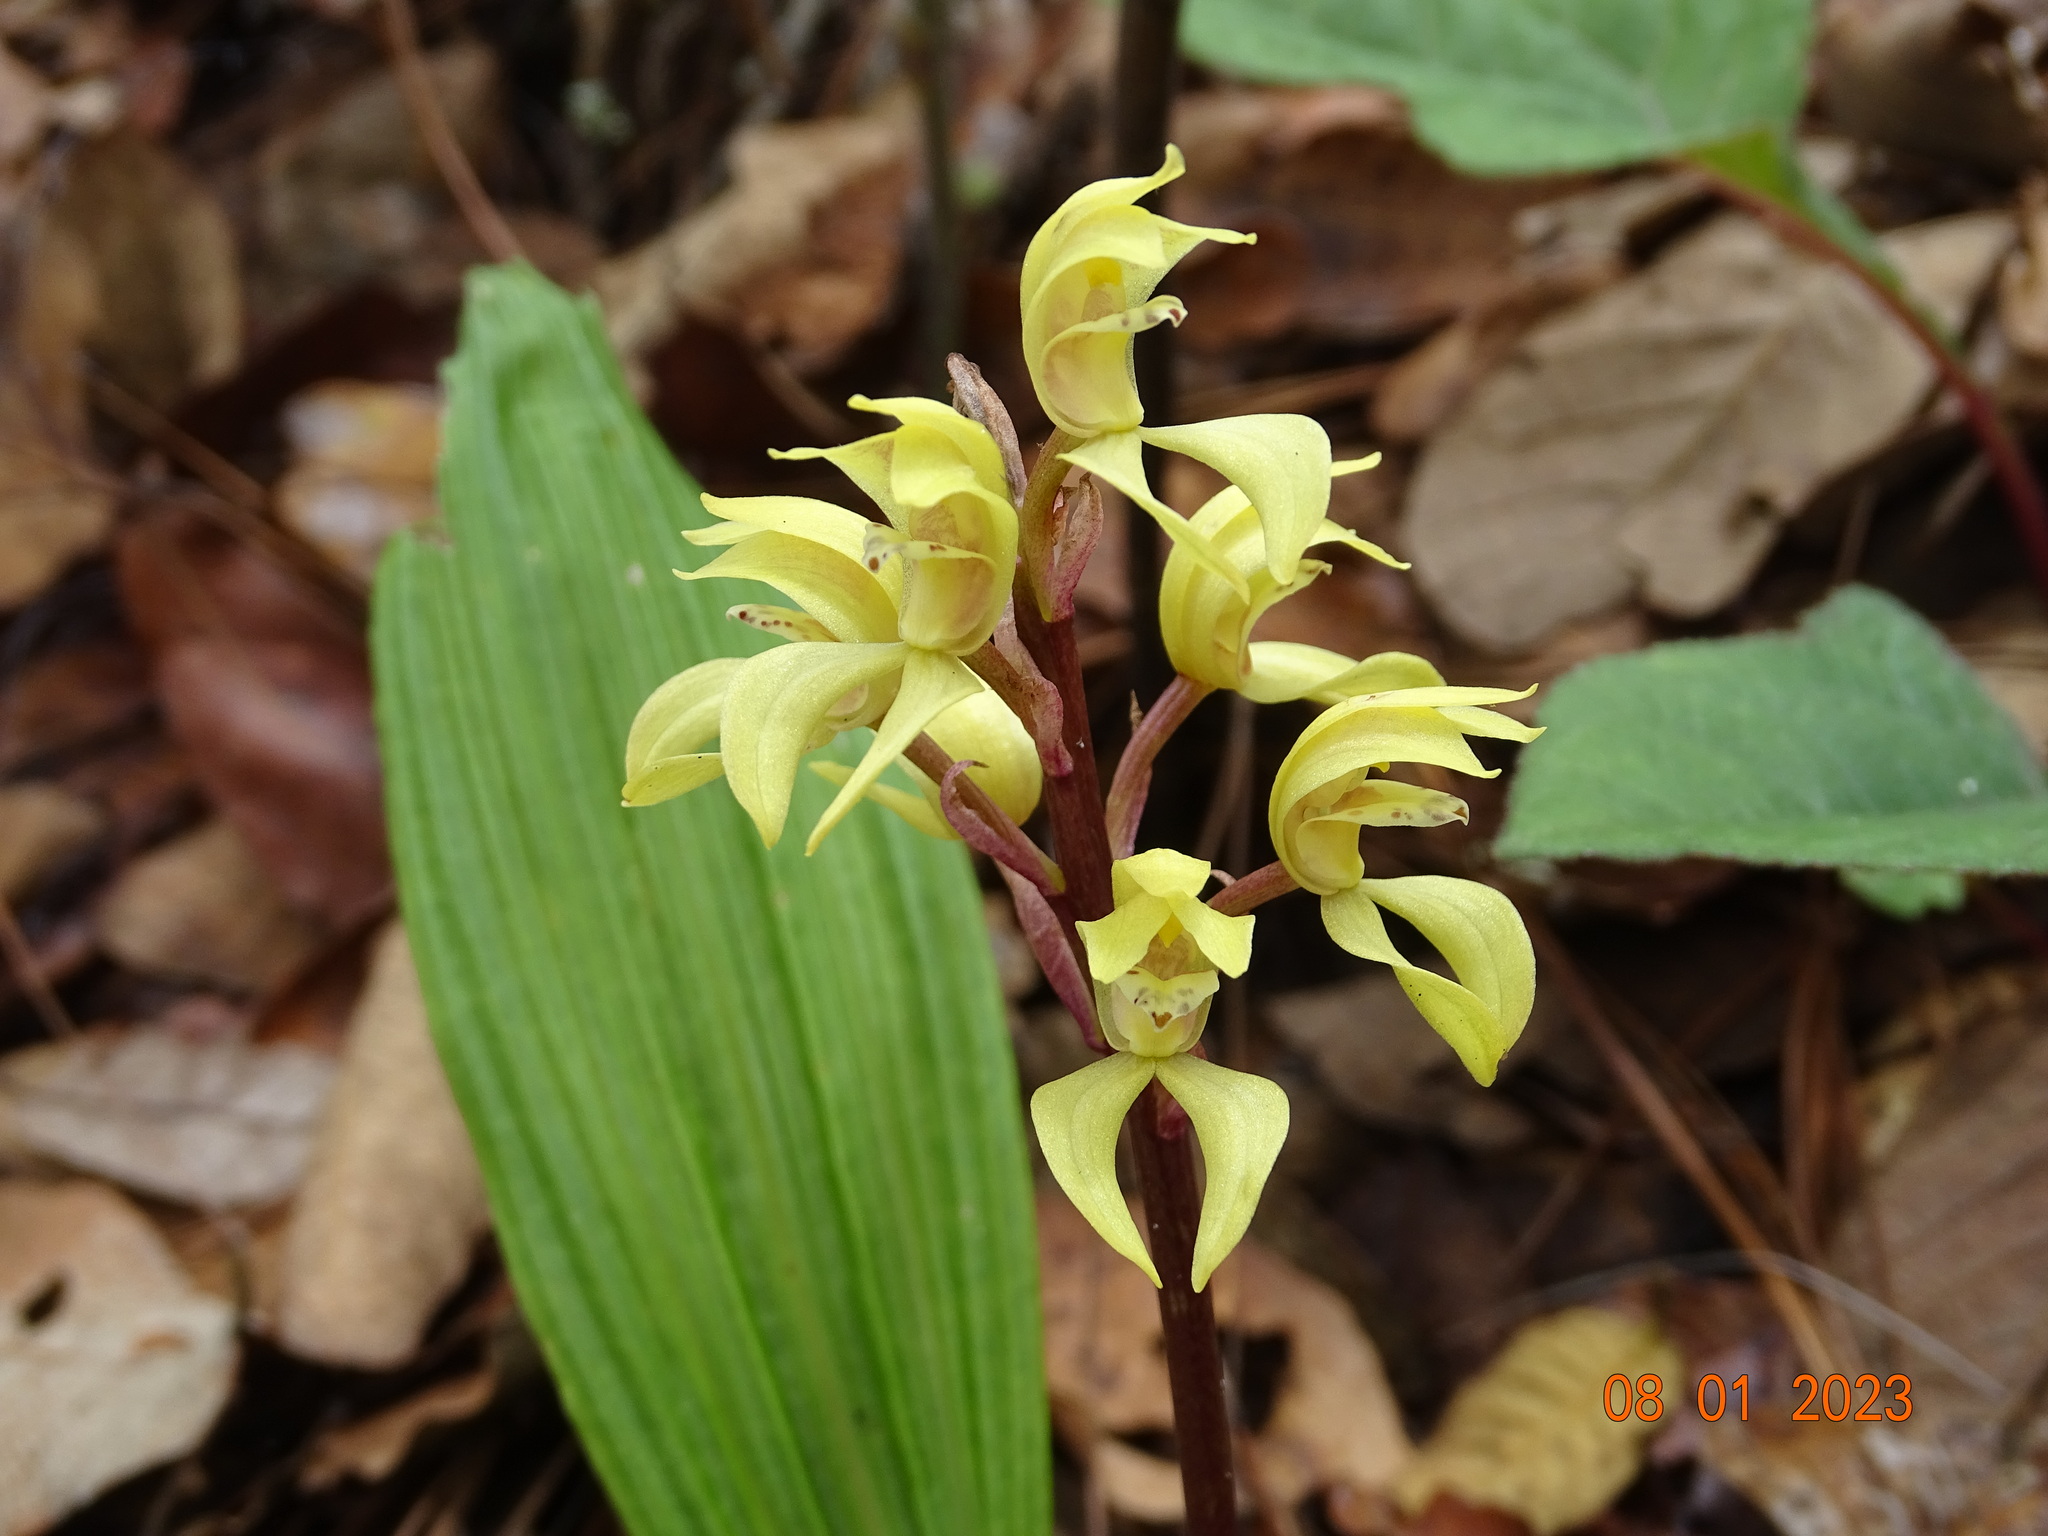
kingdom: Plantae
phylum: Tracheophyta
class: Liliopsida
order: Asparagales
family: Orchidaceae
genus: Govenia
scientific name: Govenia superba
